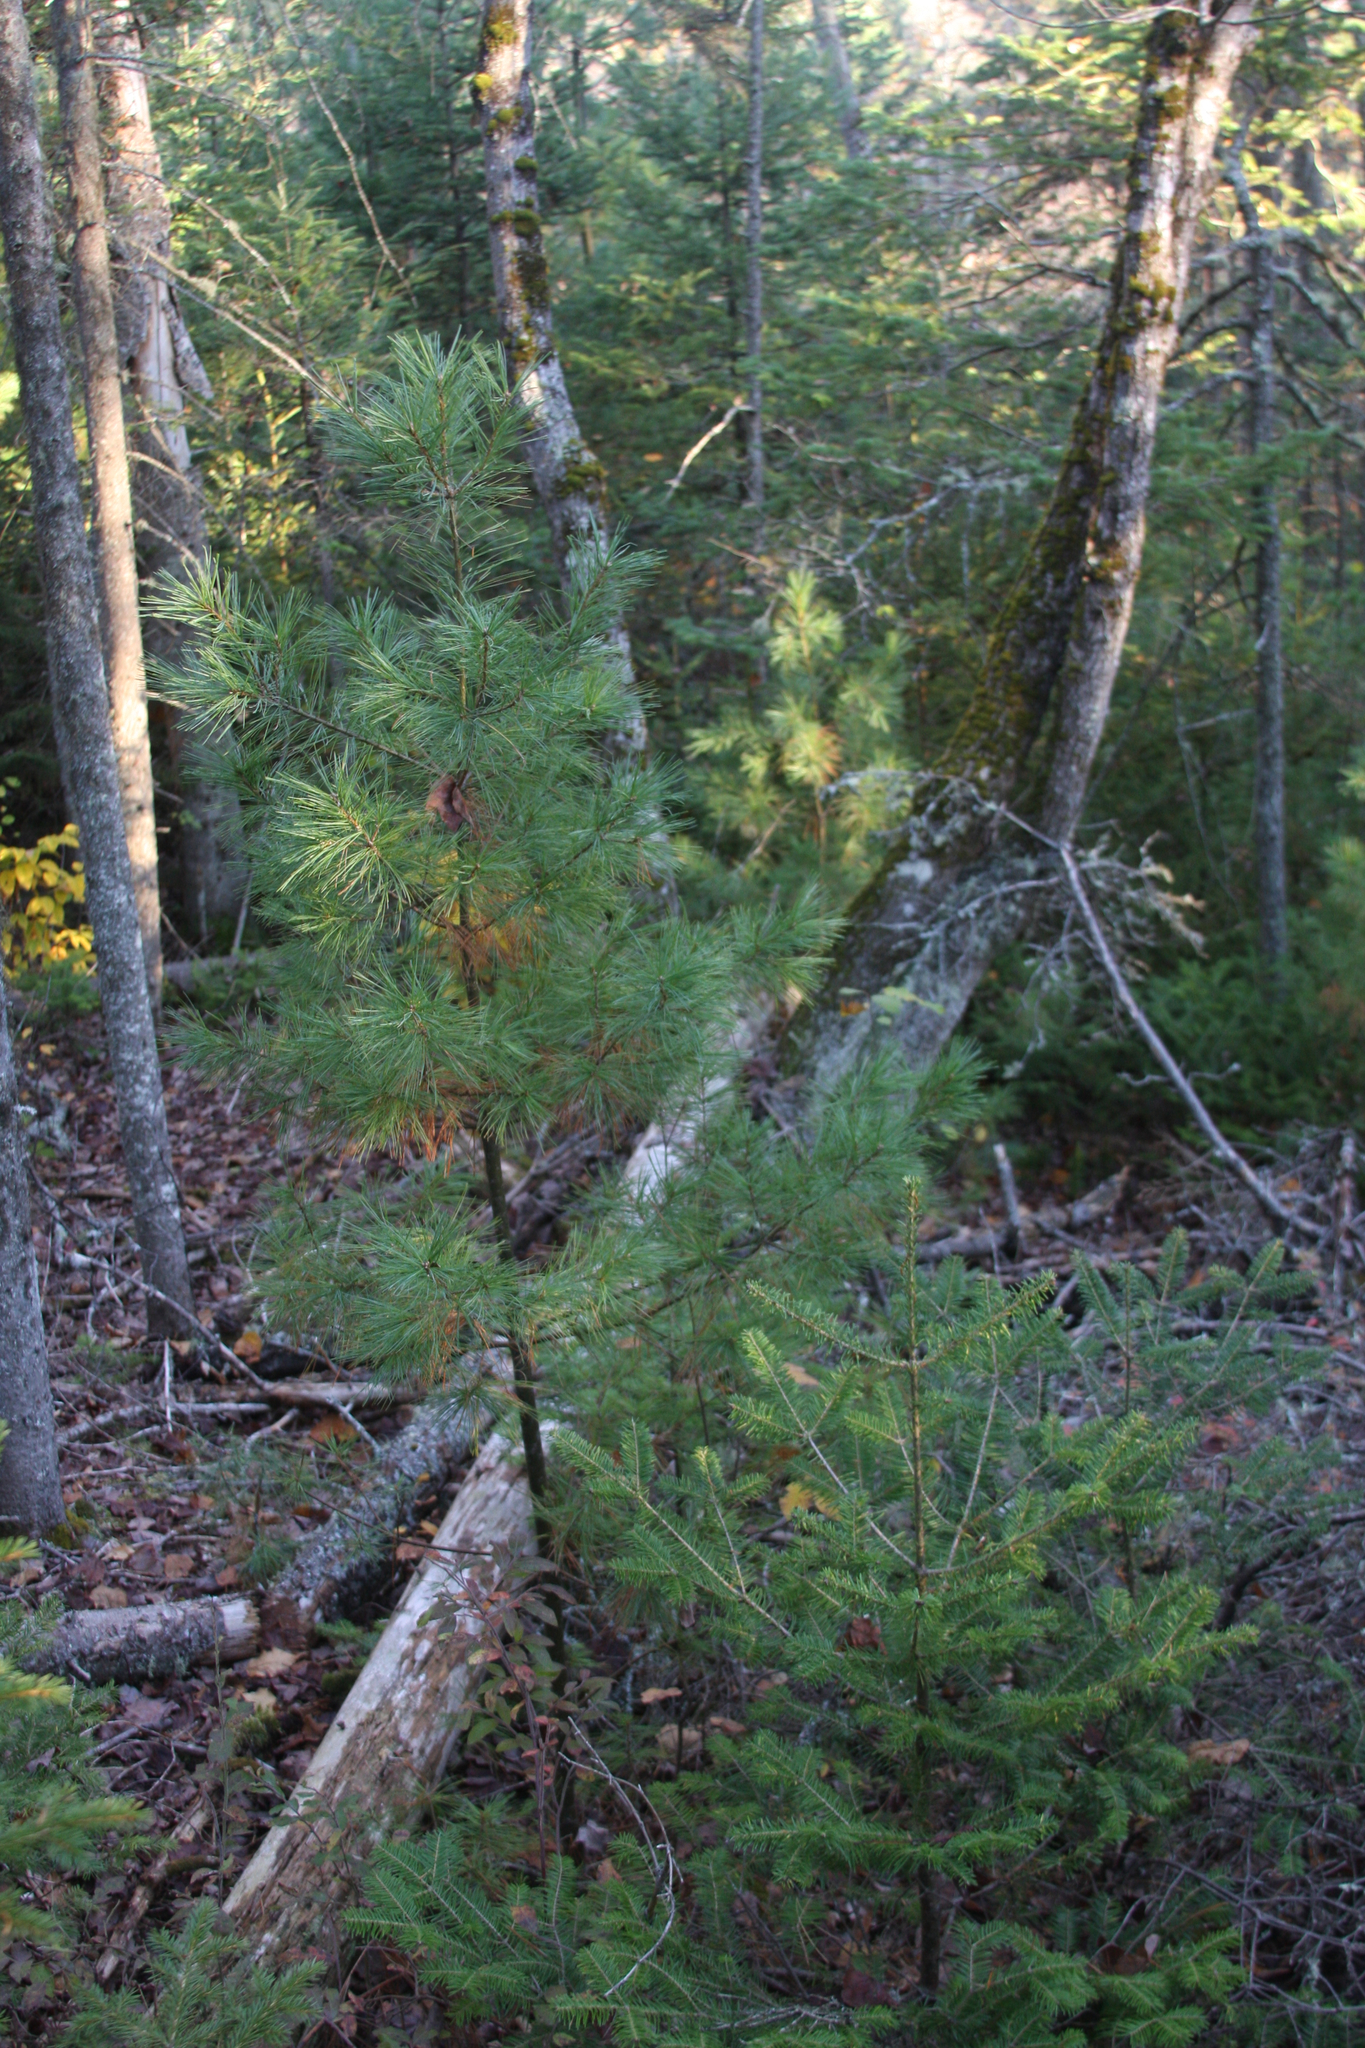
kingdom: Plantae
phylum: Tracheophyta
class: Pinopsida
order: Pinales
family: Pinaceae
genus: Pinus
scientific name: Pinus strobus
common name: Weymouth pine
